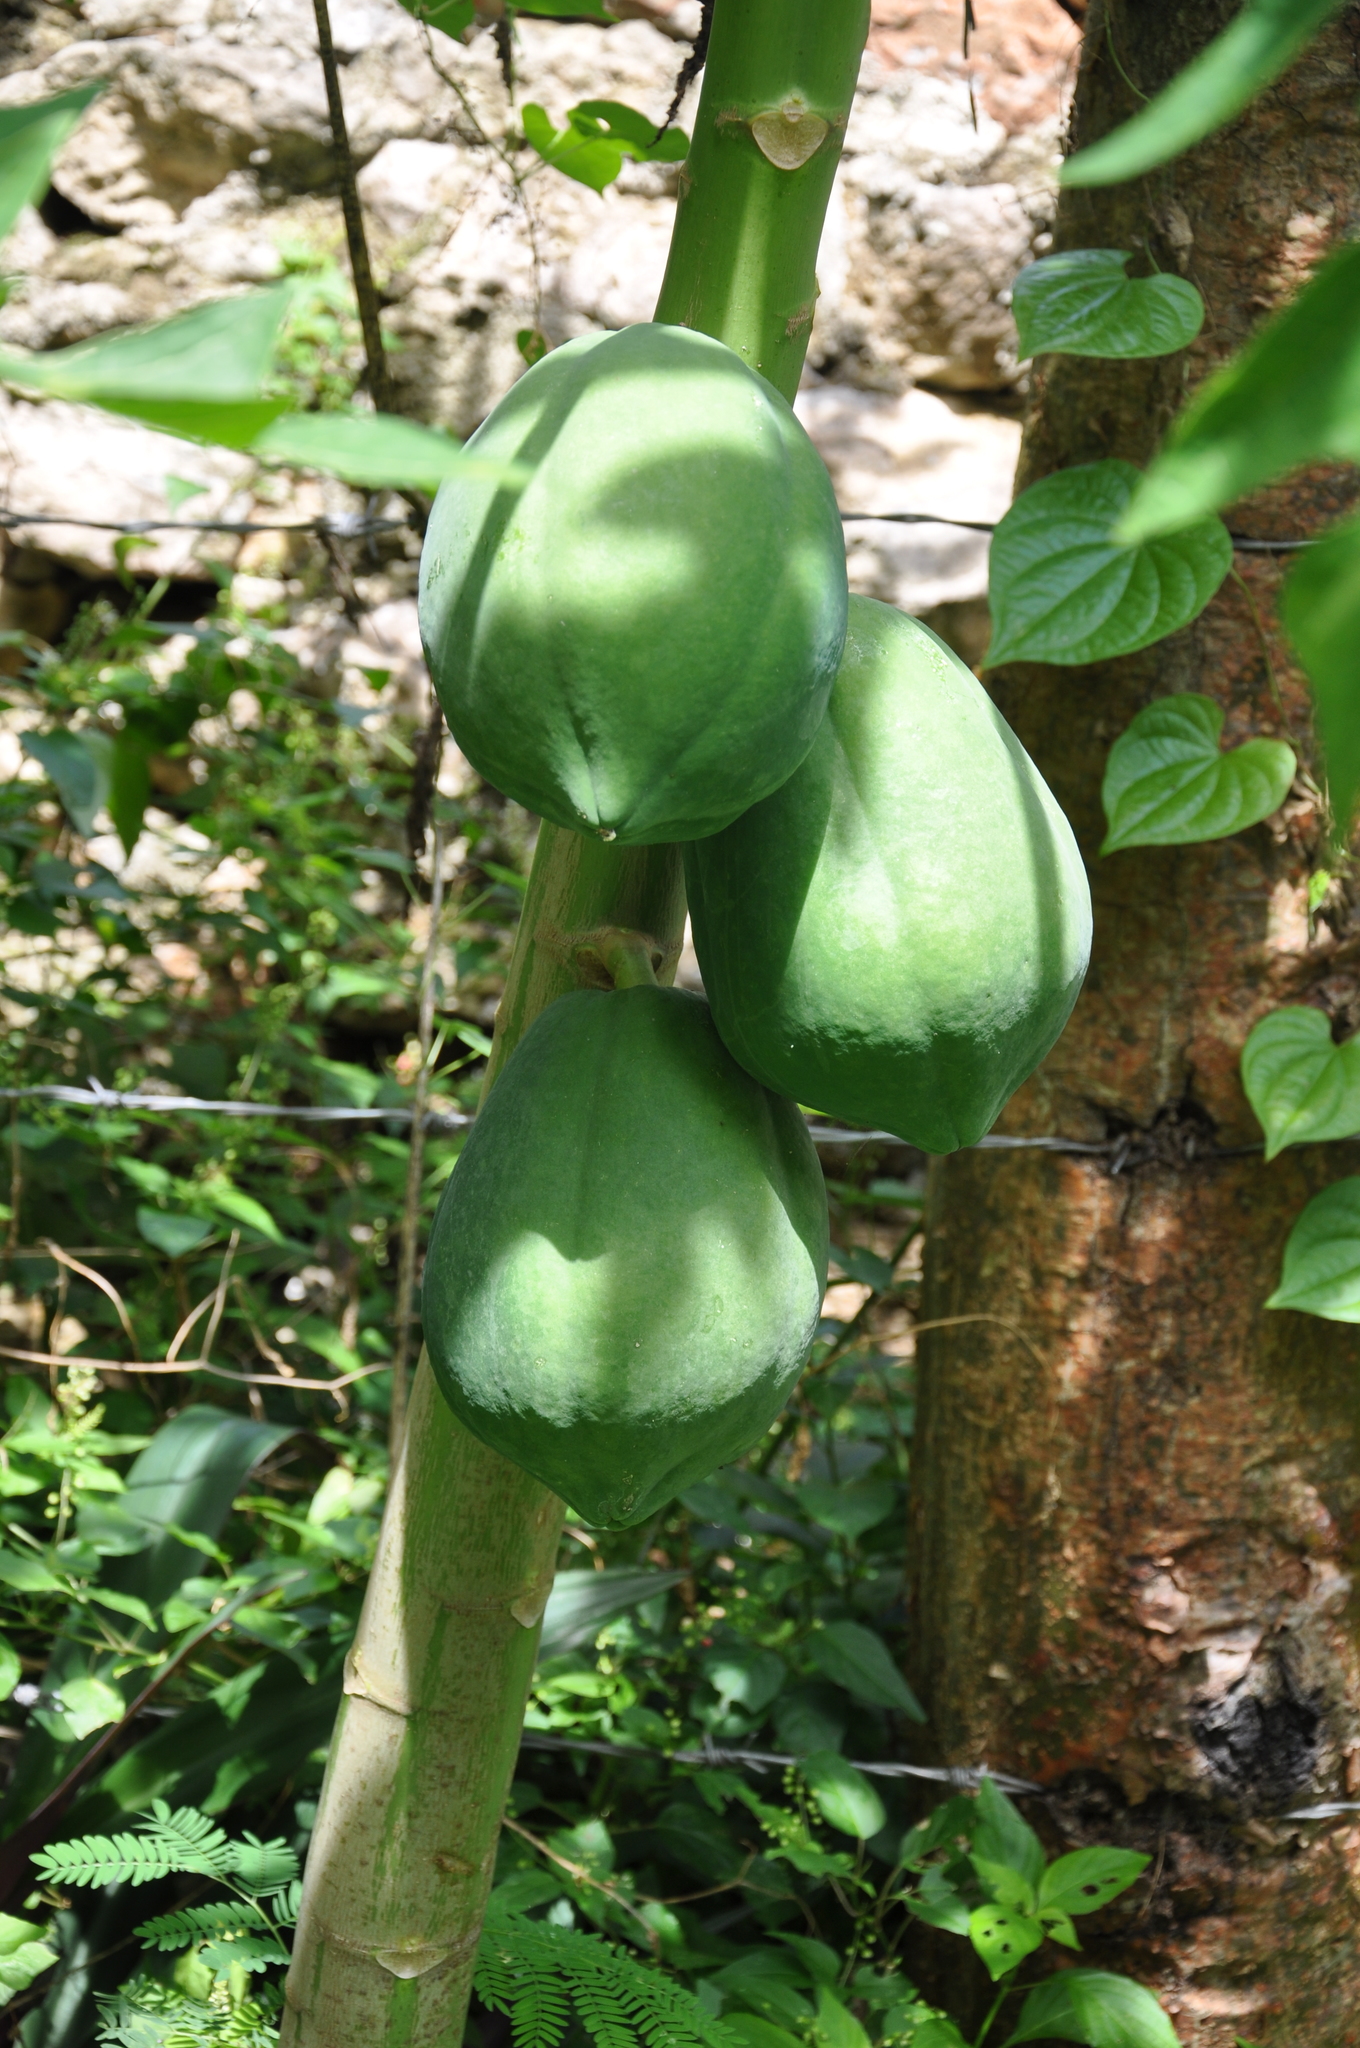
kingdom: Plantae
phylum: Tracheophyta
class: Magnoliopsida
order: Brassicales
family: Caricaceae
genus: Carica
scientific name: Carica papaya
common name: Papaya
